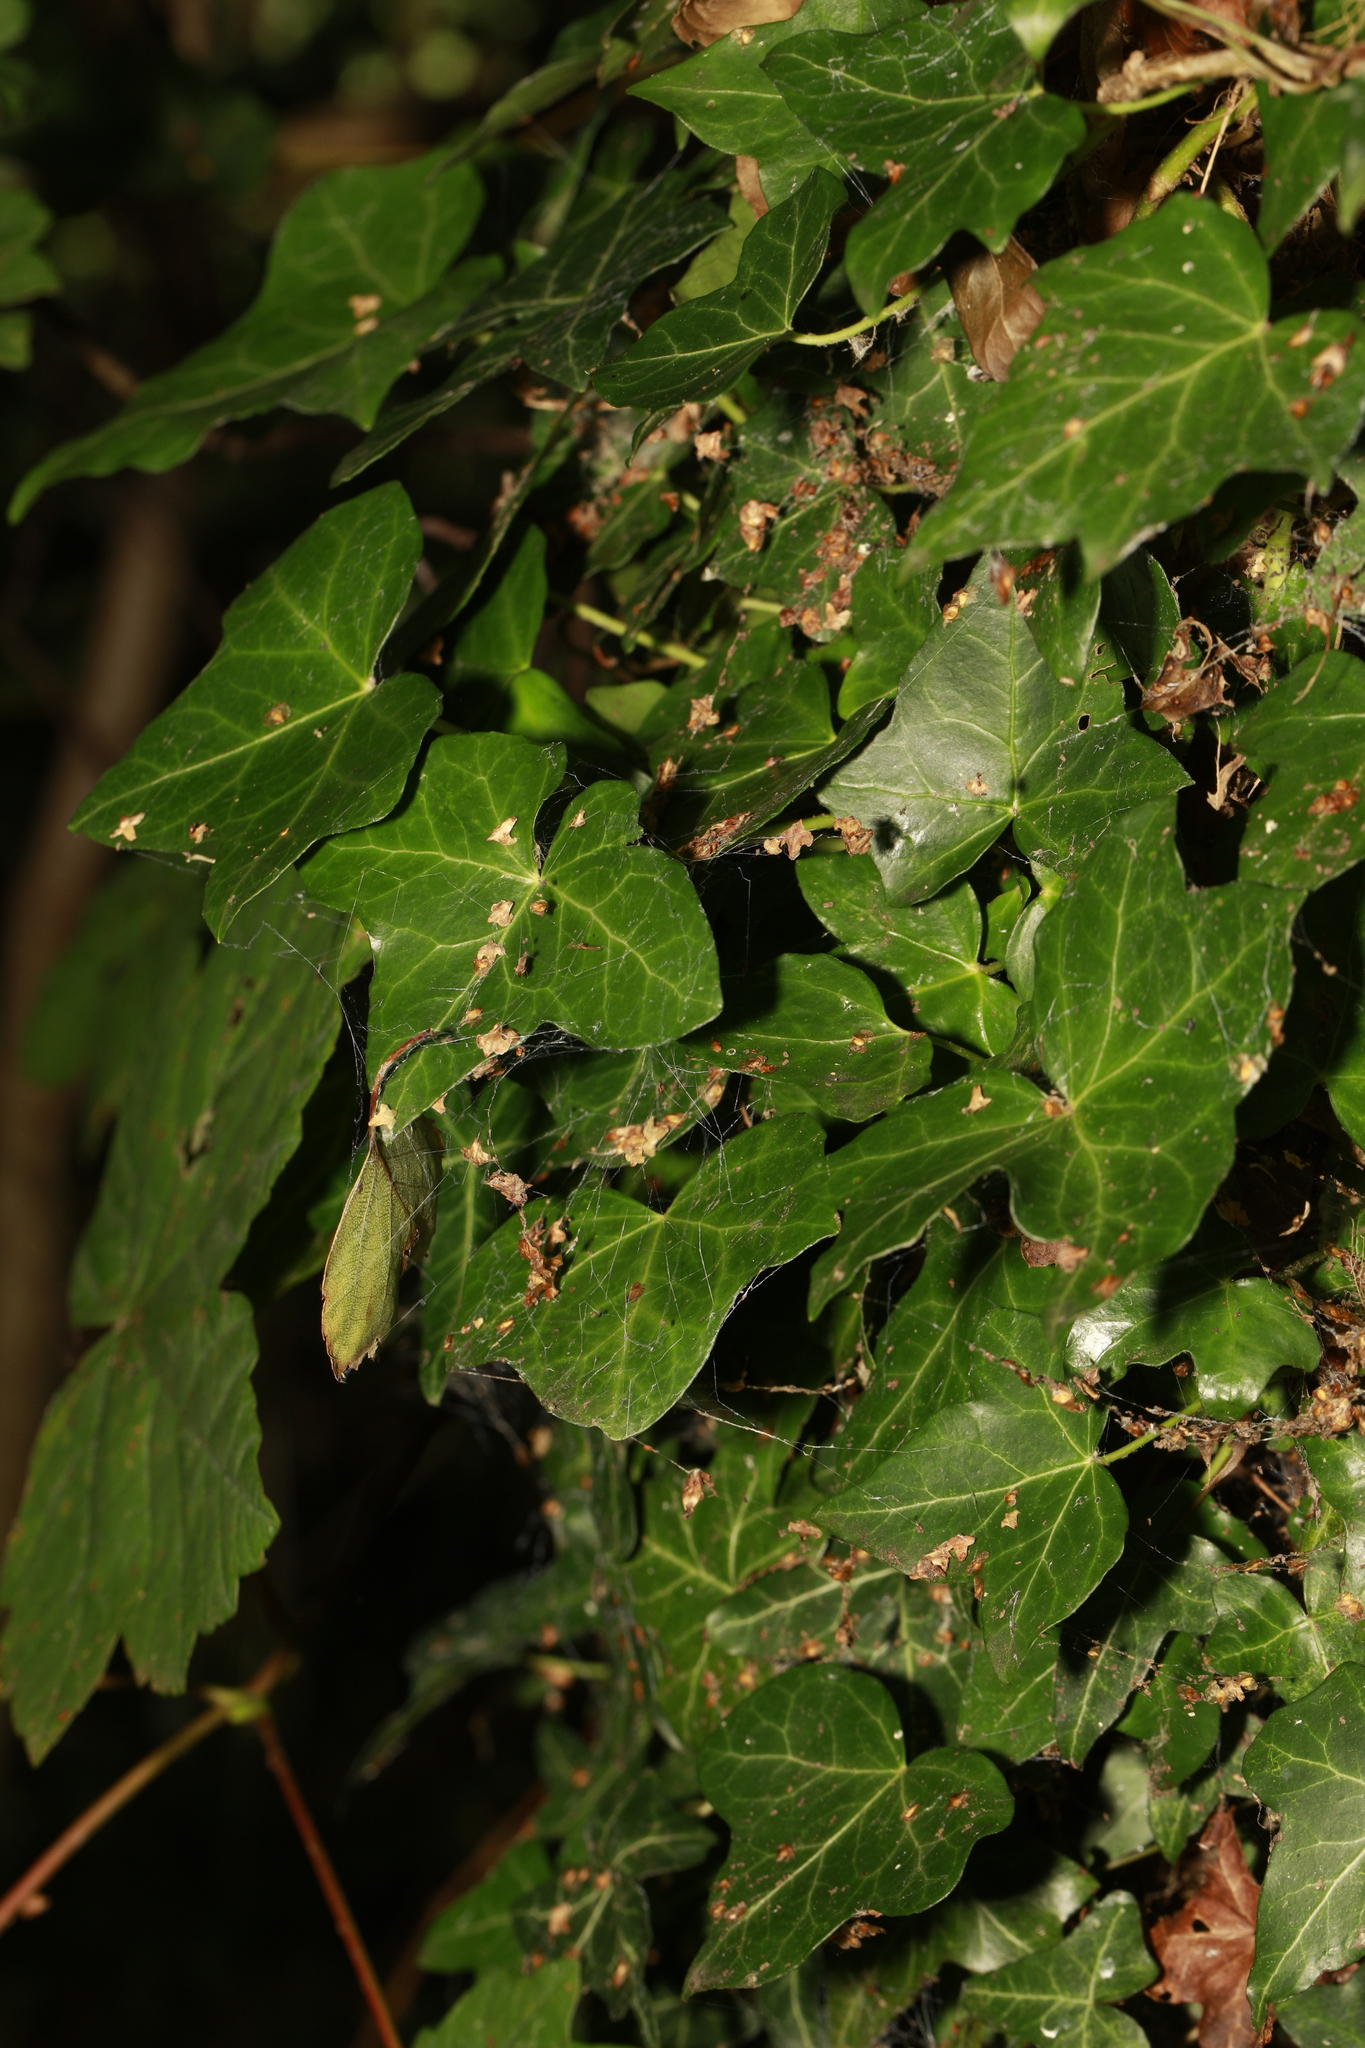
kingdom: Plantae
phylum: Tracheophyta
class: Magnoliopsida
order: Apiales
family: Araliaceae
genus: Hedera
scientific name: Hedera helix
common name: Ivy
